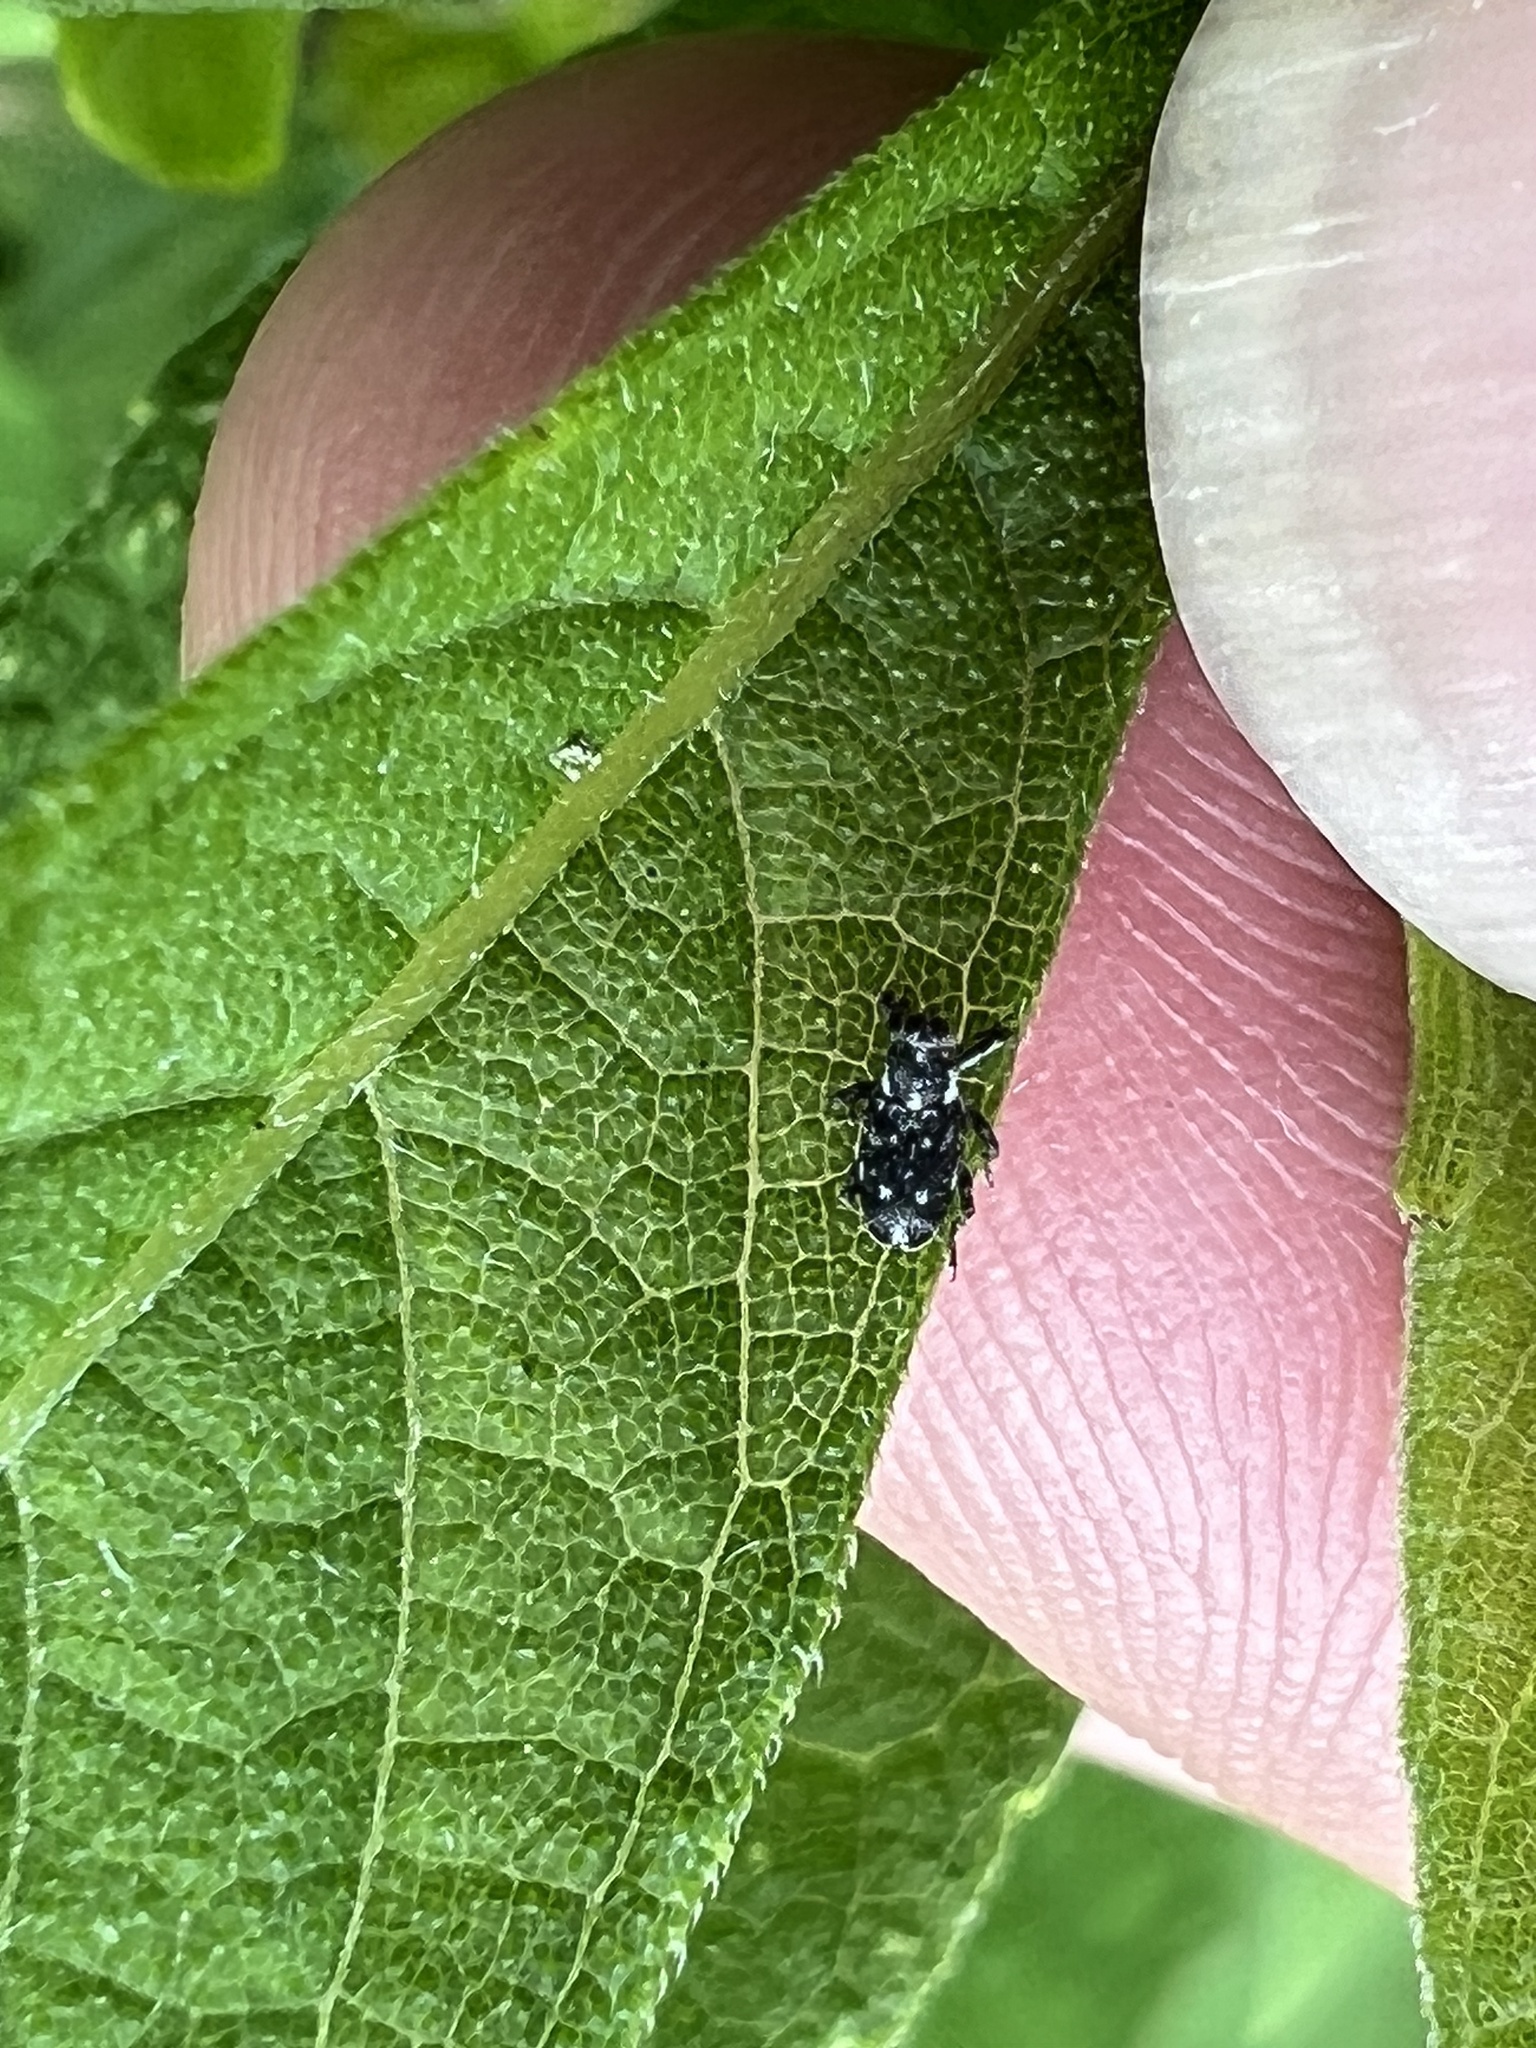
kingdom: Animalia
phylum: Arthropoda
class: Insecta
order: Coleoptera
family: Curculionidae
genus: Cylindrocopturus
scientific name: Cylindrocopturus quercus
